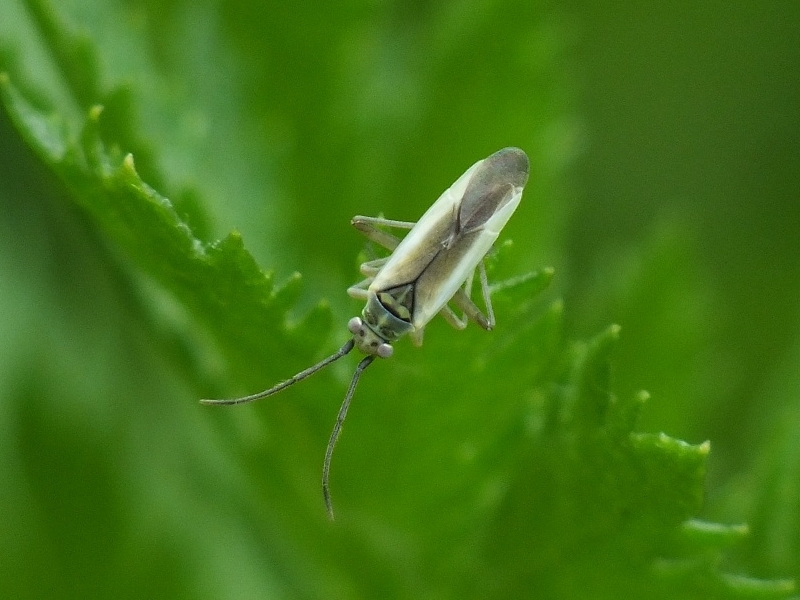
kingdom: Animalia
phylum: Arthropoda
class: Insecta
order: Hemiptera
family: Miridae
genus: Conostethus
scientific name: Conostethus hungaricus
